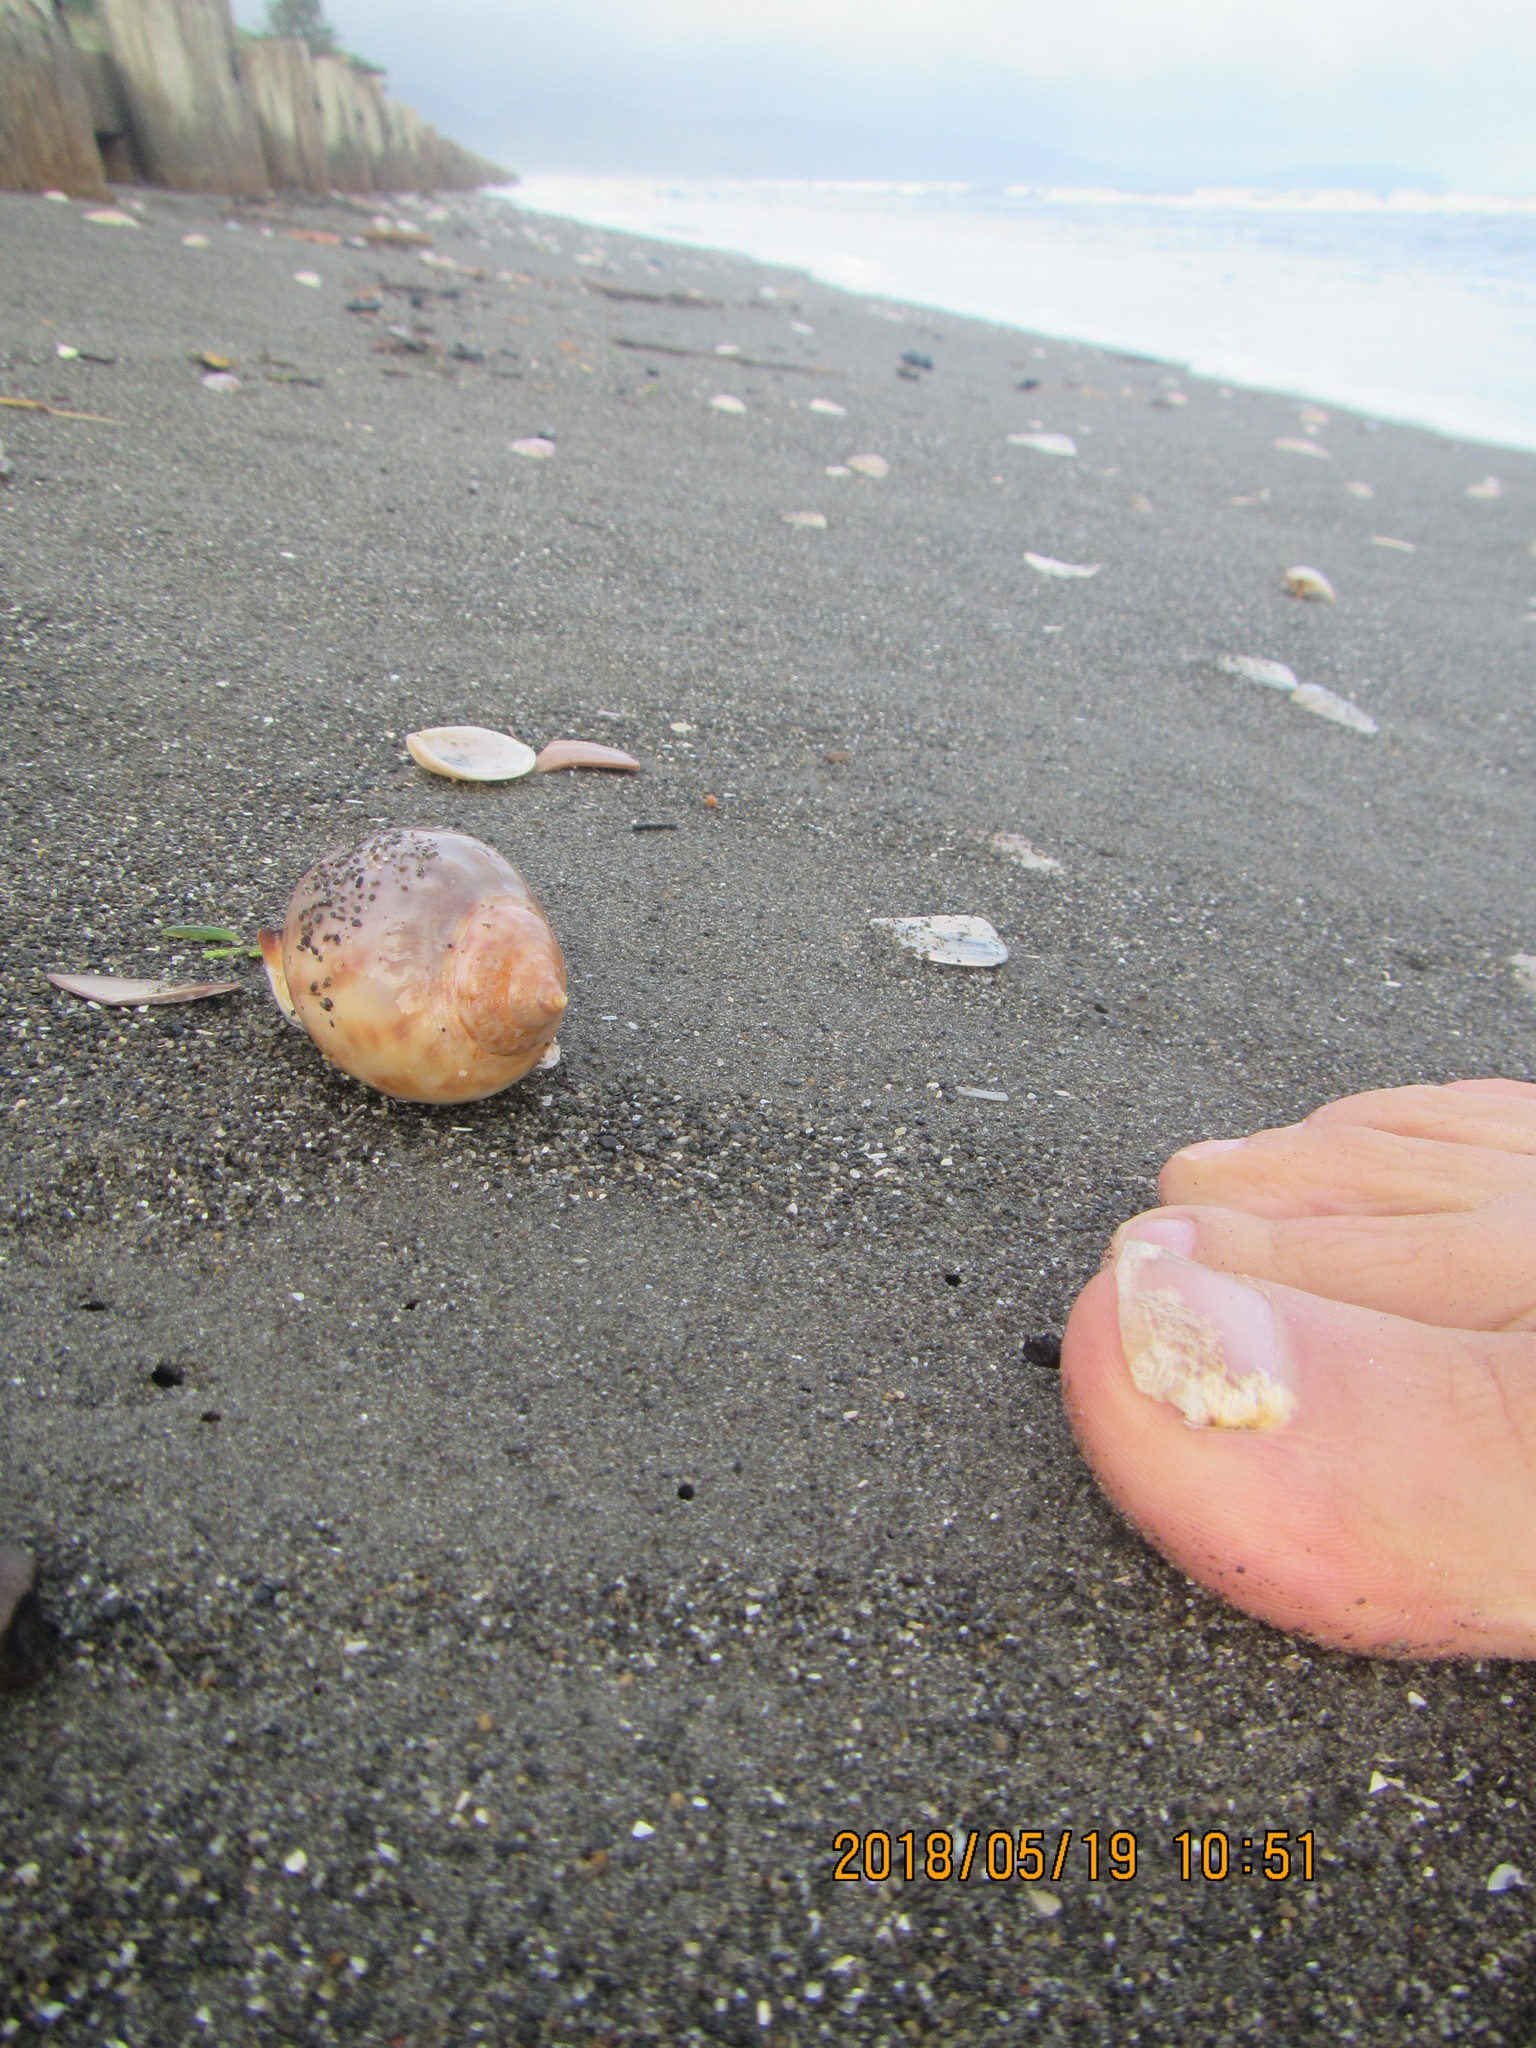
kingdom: Animalia
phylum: Mollusca
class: Gastropoda
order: Littorinimorpha
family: Cassidae
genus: Semicassis
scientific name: Semicassis pyrum
